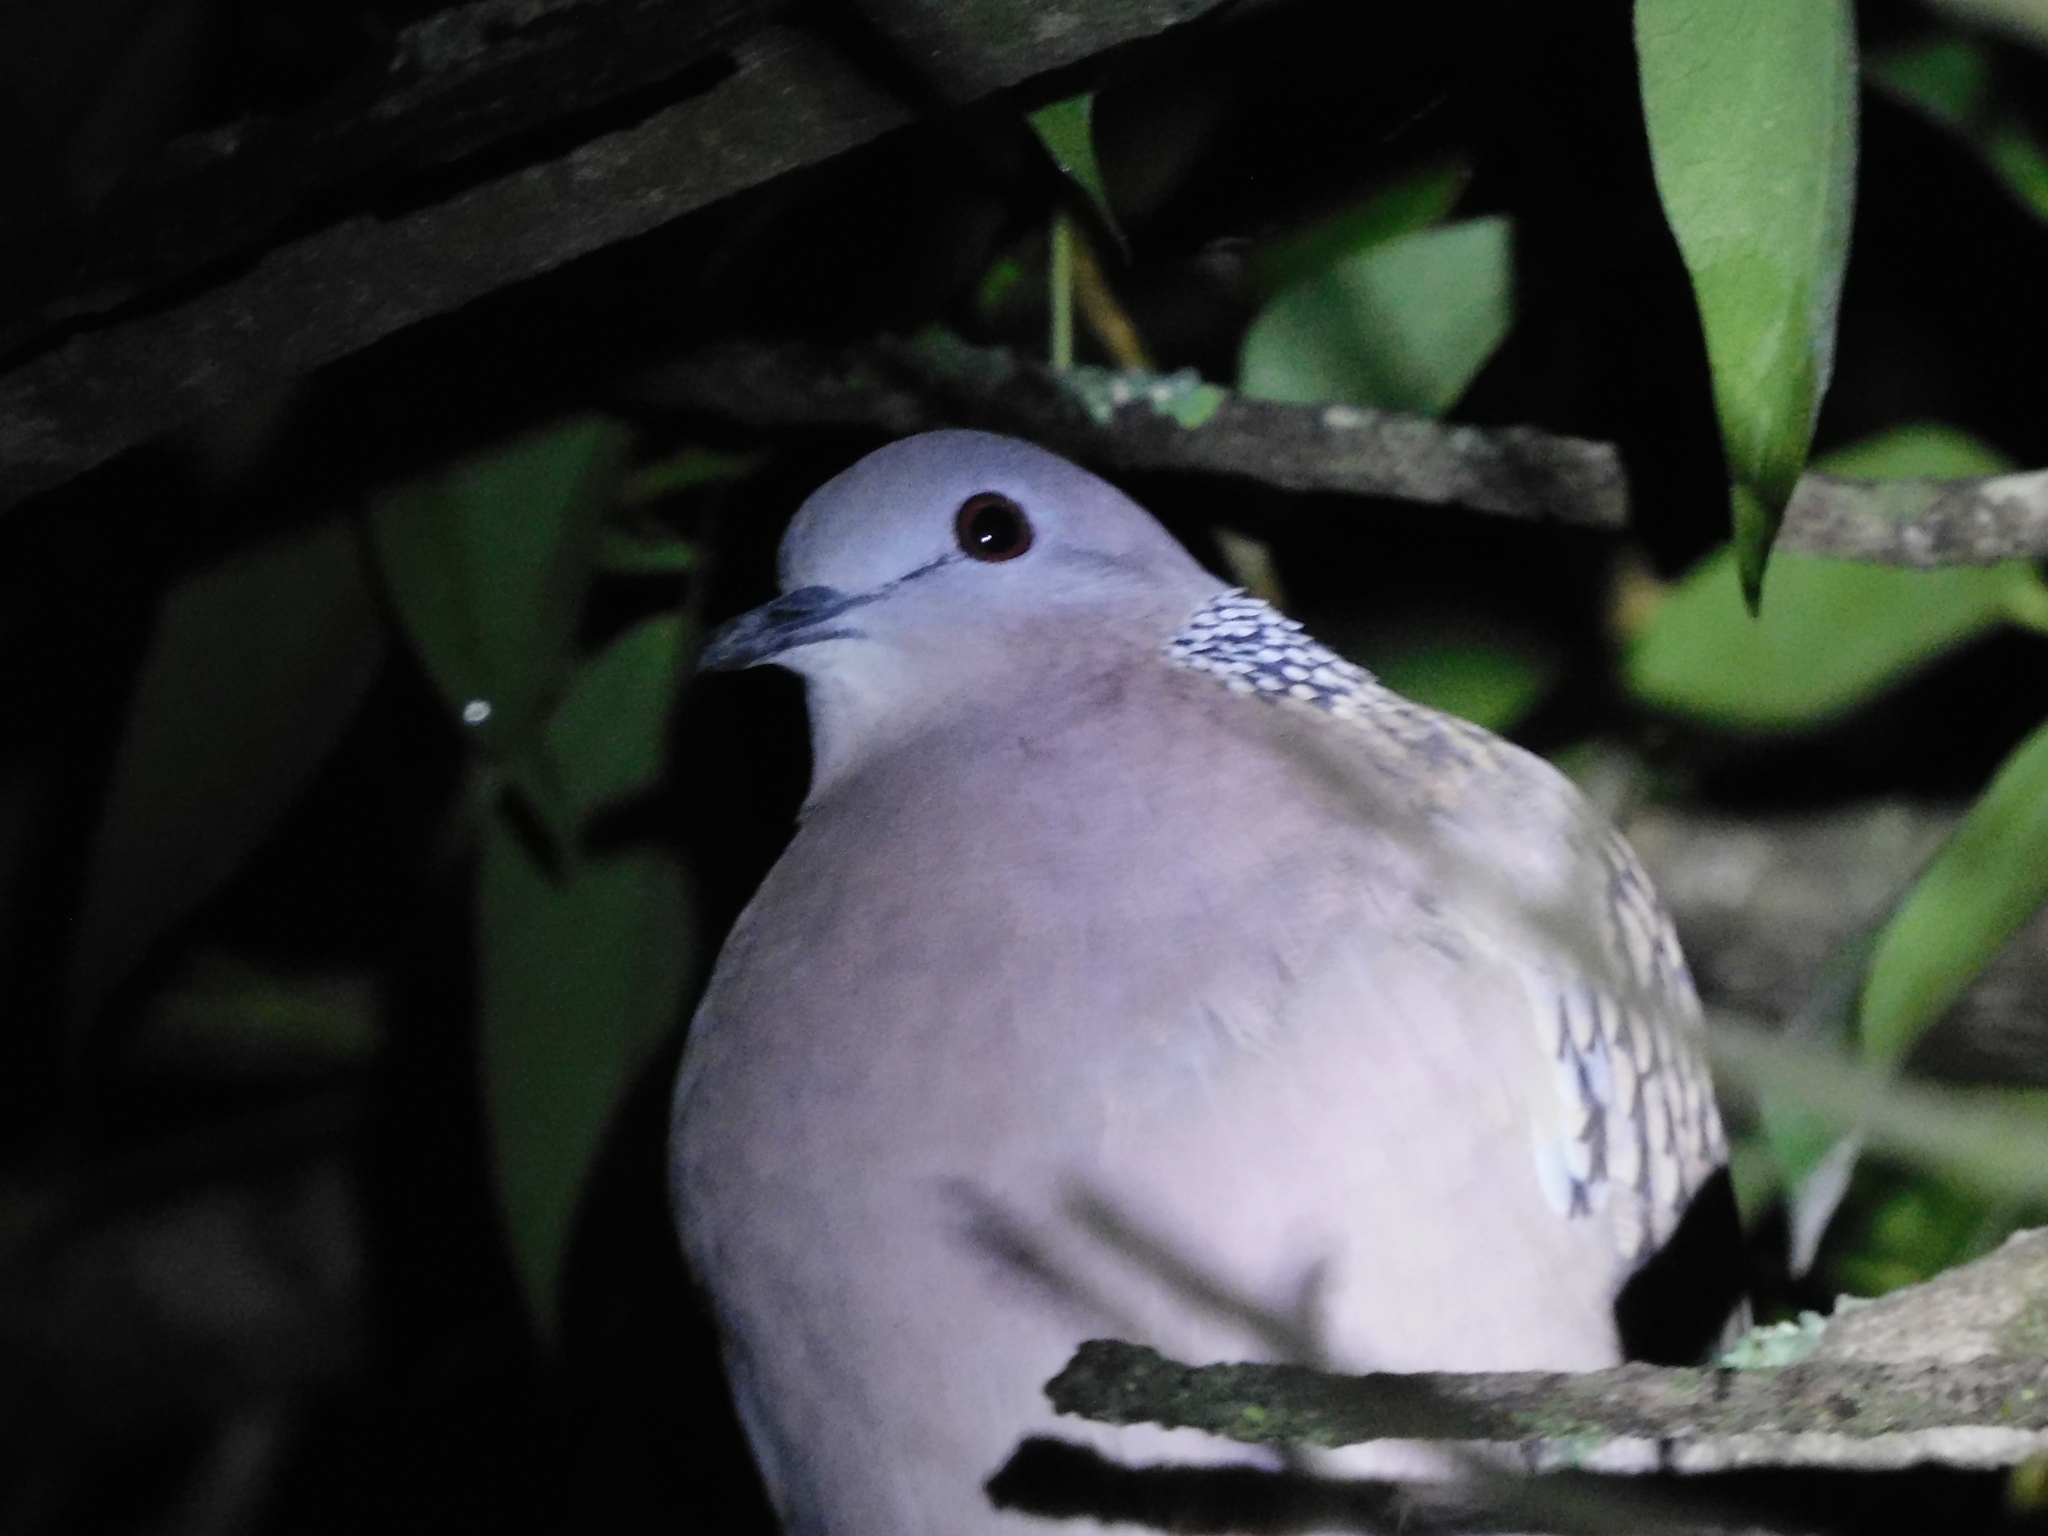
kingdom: Animalia
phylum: Chordata
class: Aves
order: Columbiformes
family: Columbidae
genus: Spilopelia
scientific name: Spilopelia chinensis
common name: Spotted dove
